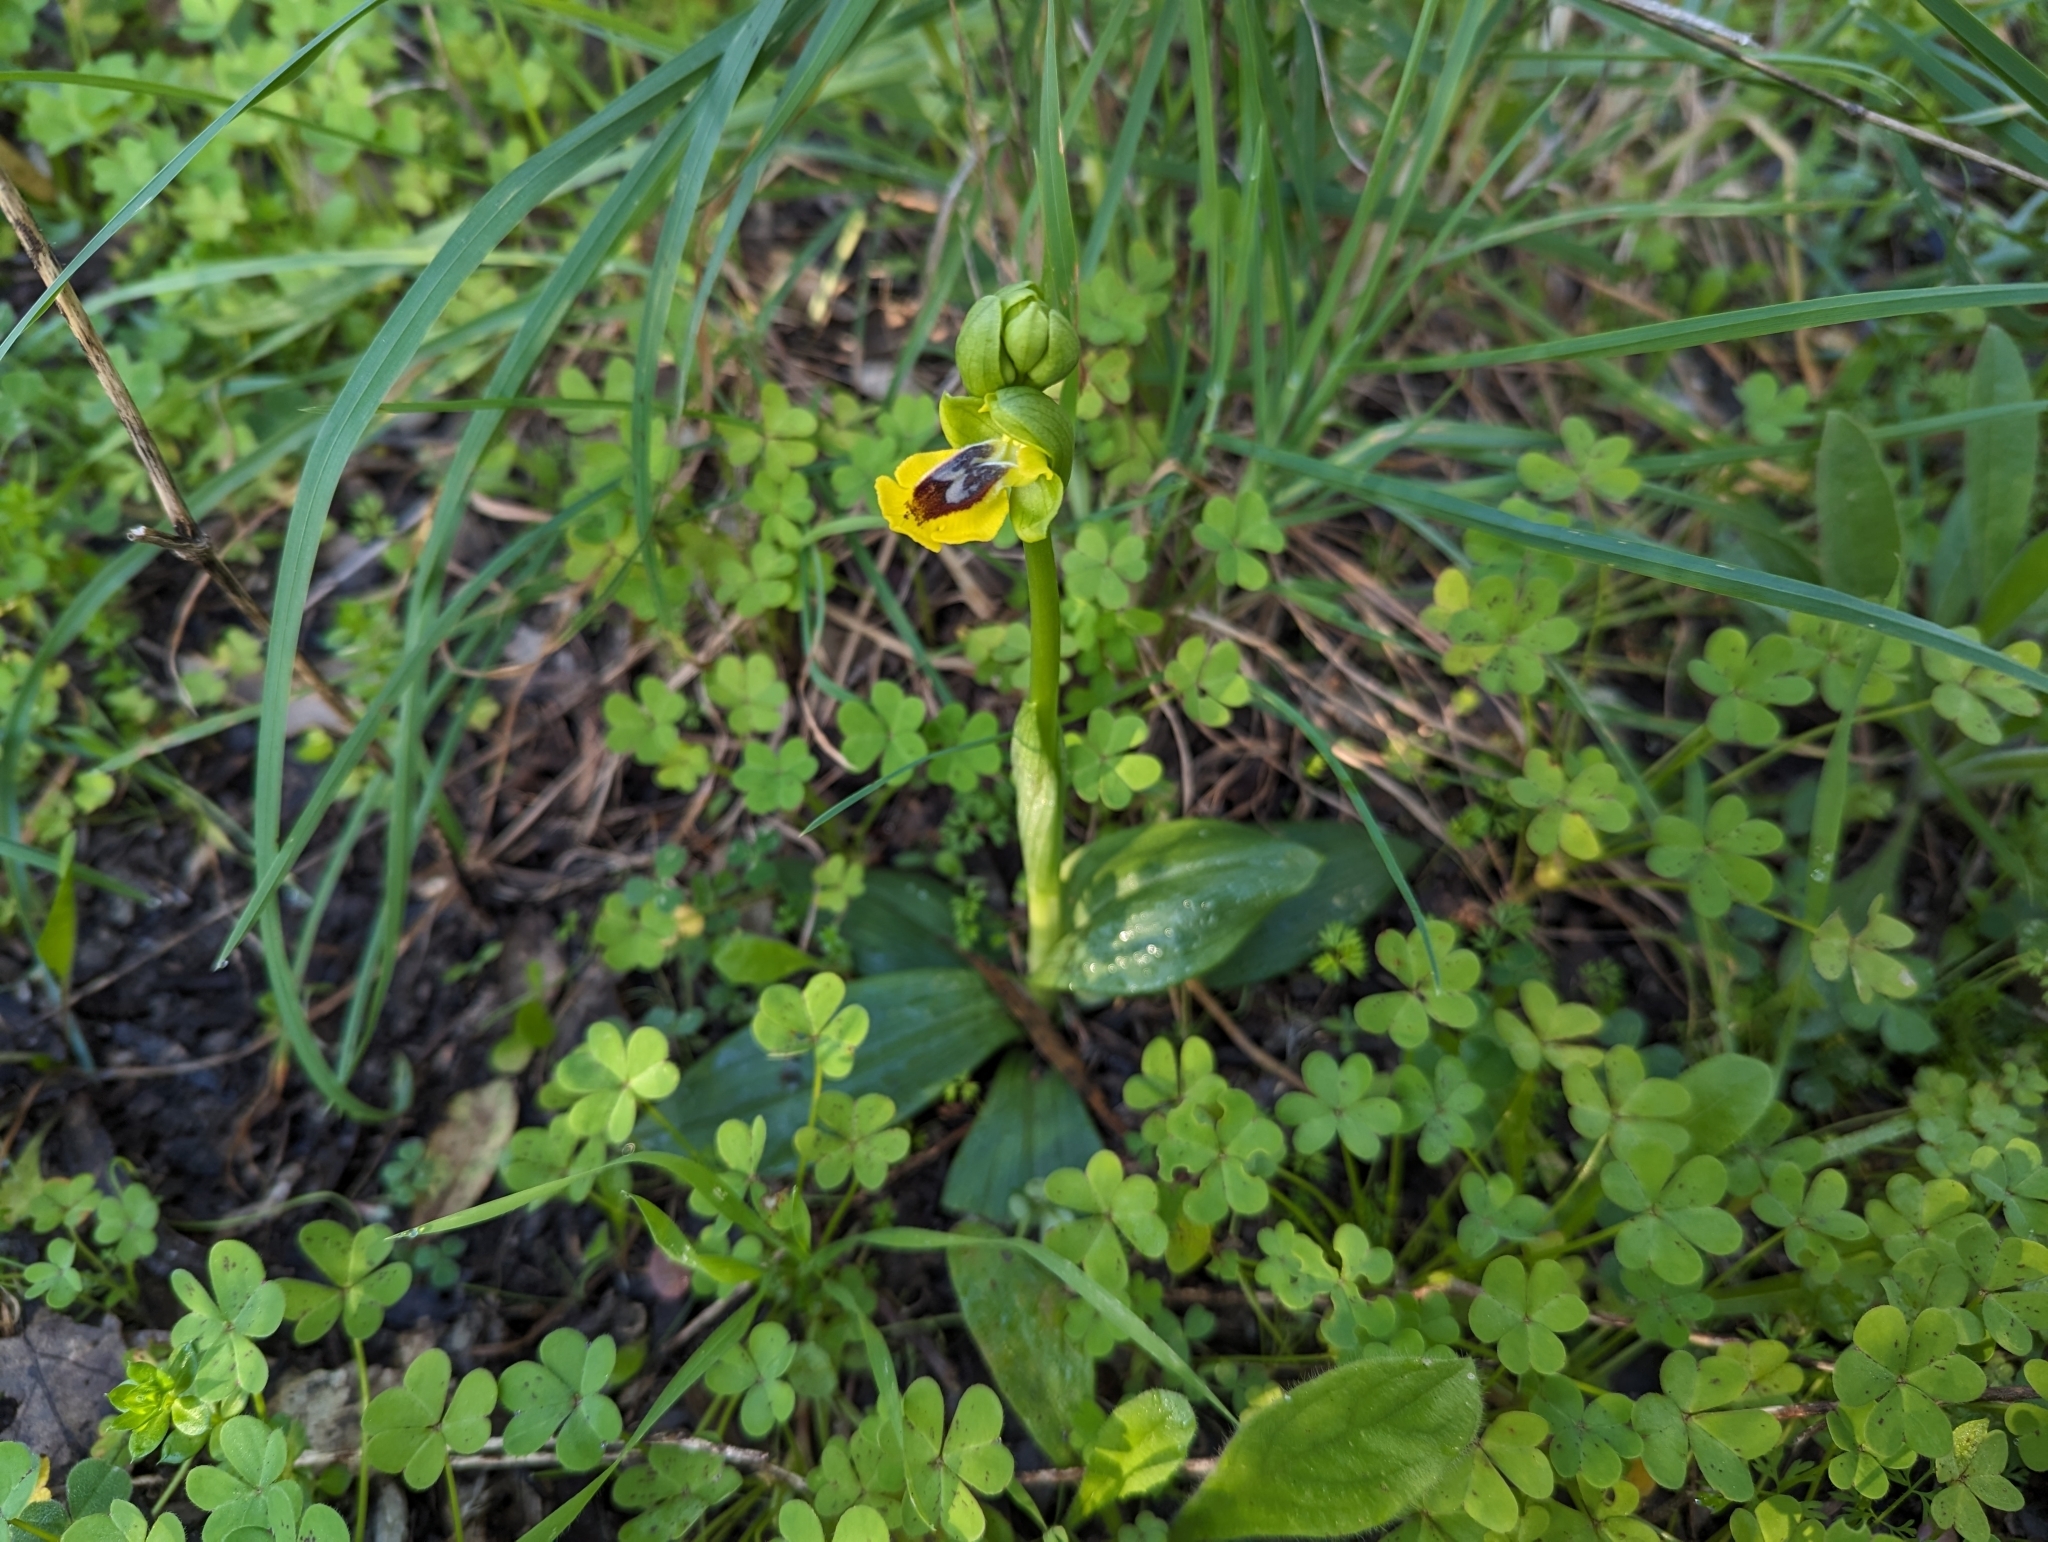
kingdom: Plantae
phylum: Tracheophyta
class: Liliopsida
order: Asparagales
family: Orchidaceae
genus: Ophrys
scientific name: Ophrys lutea
